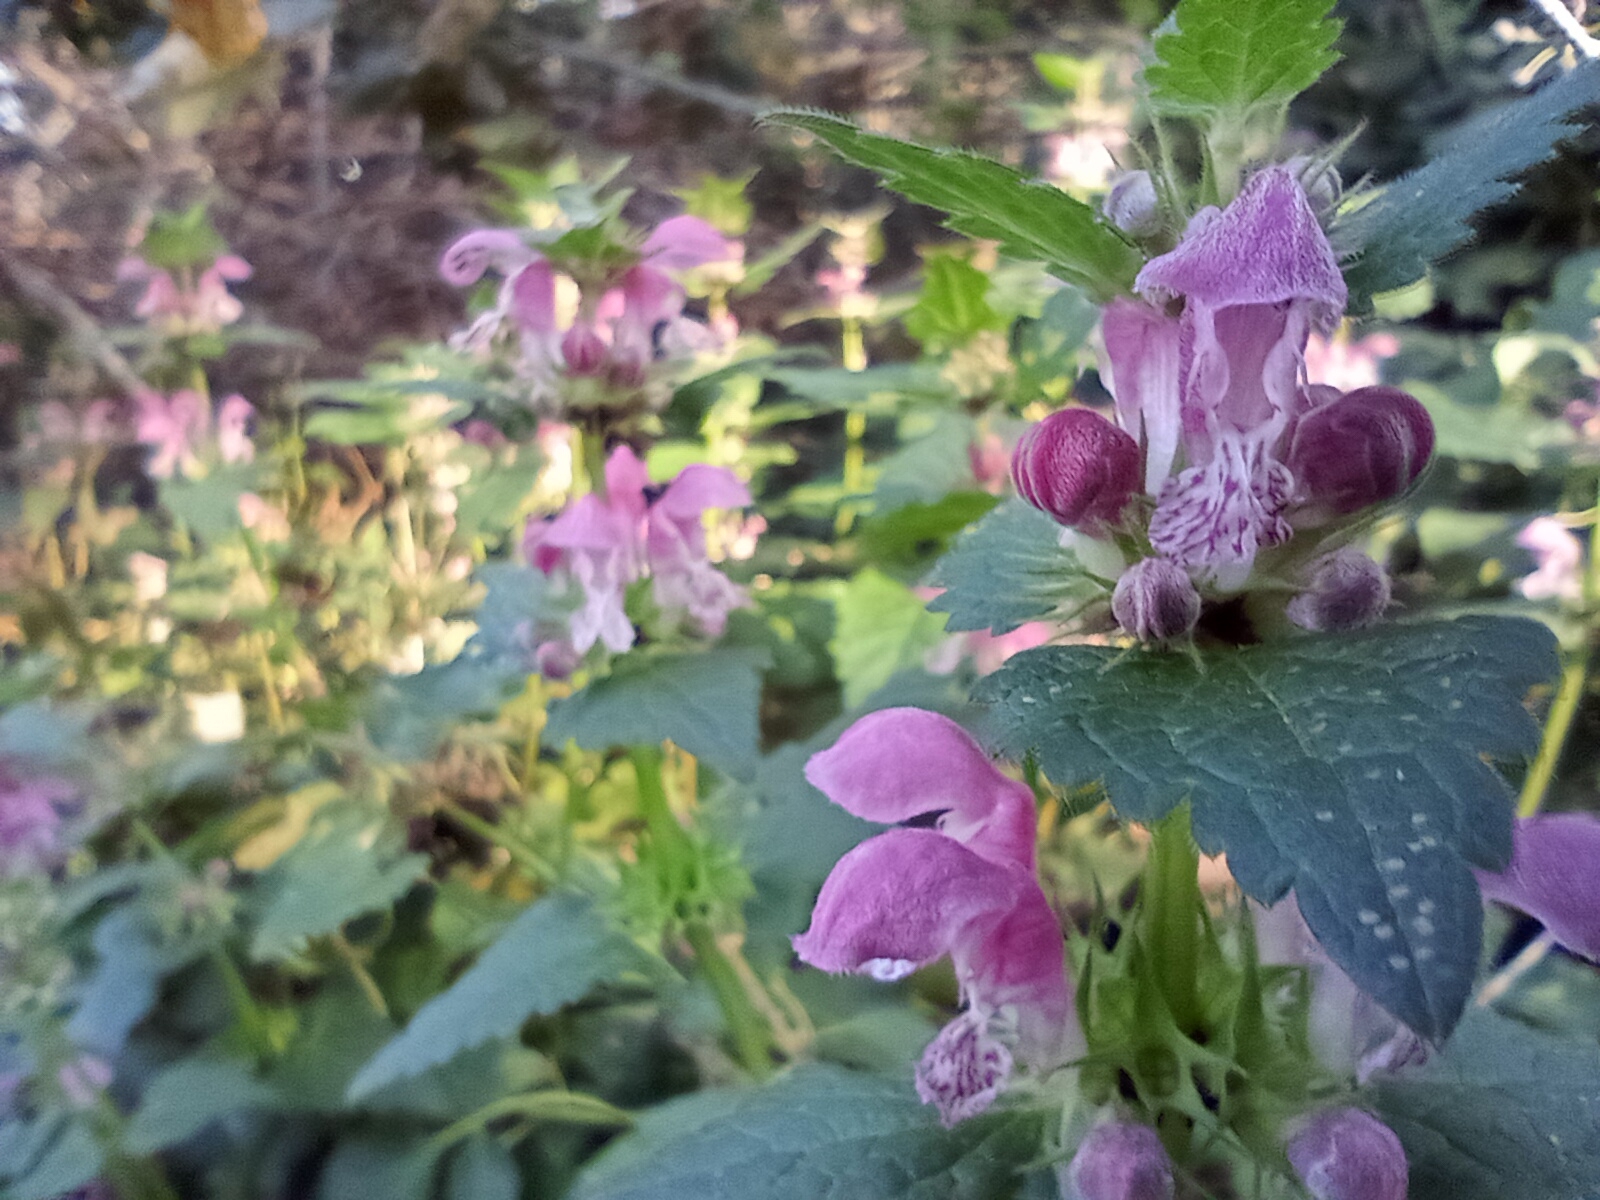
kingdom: Plantae
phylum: Tracheophyta
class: Magnoliopsida
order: Lamiales
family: Lamiaceae
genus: Lamium
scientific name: Lamium maculatum
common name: Spotted dead-nettle
